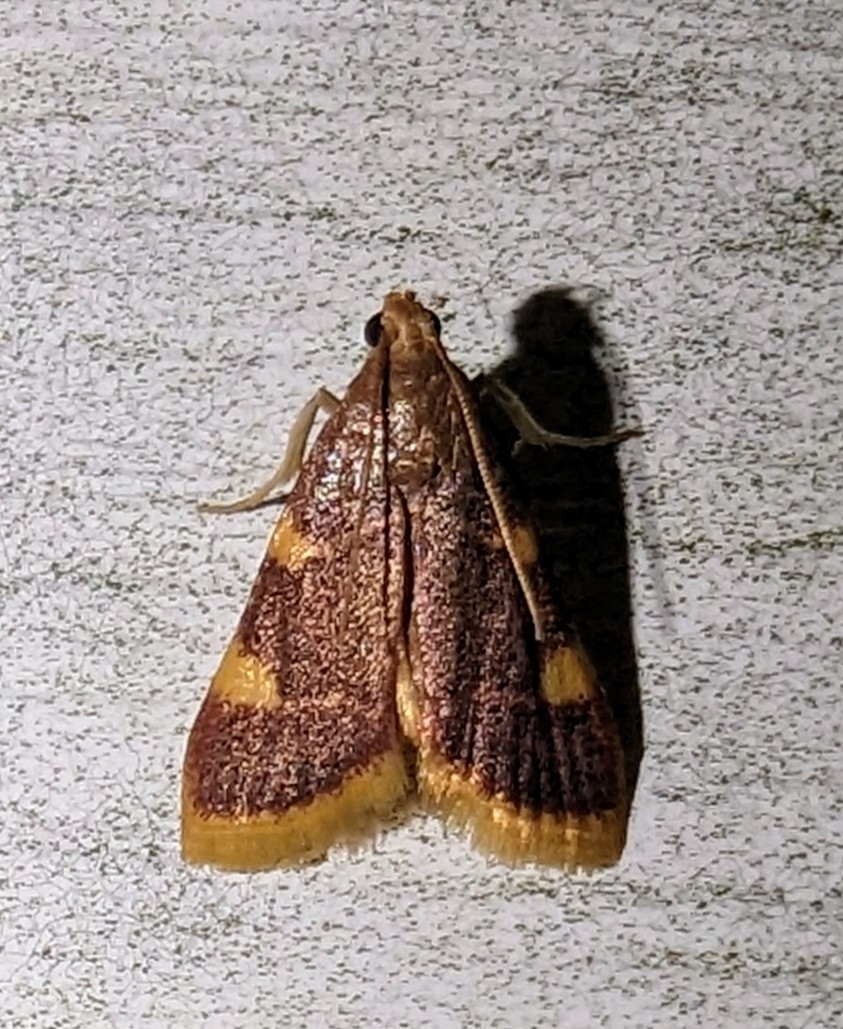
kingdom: Animalia
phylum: Arthropoda
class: Insecta
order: Lepidoptera
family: Pyralidae
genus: Hypsopygia
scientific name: Hypsopygia costalis
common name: Gold triangle
